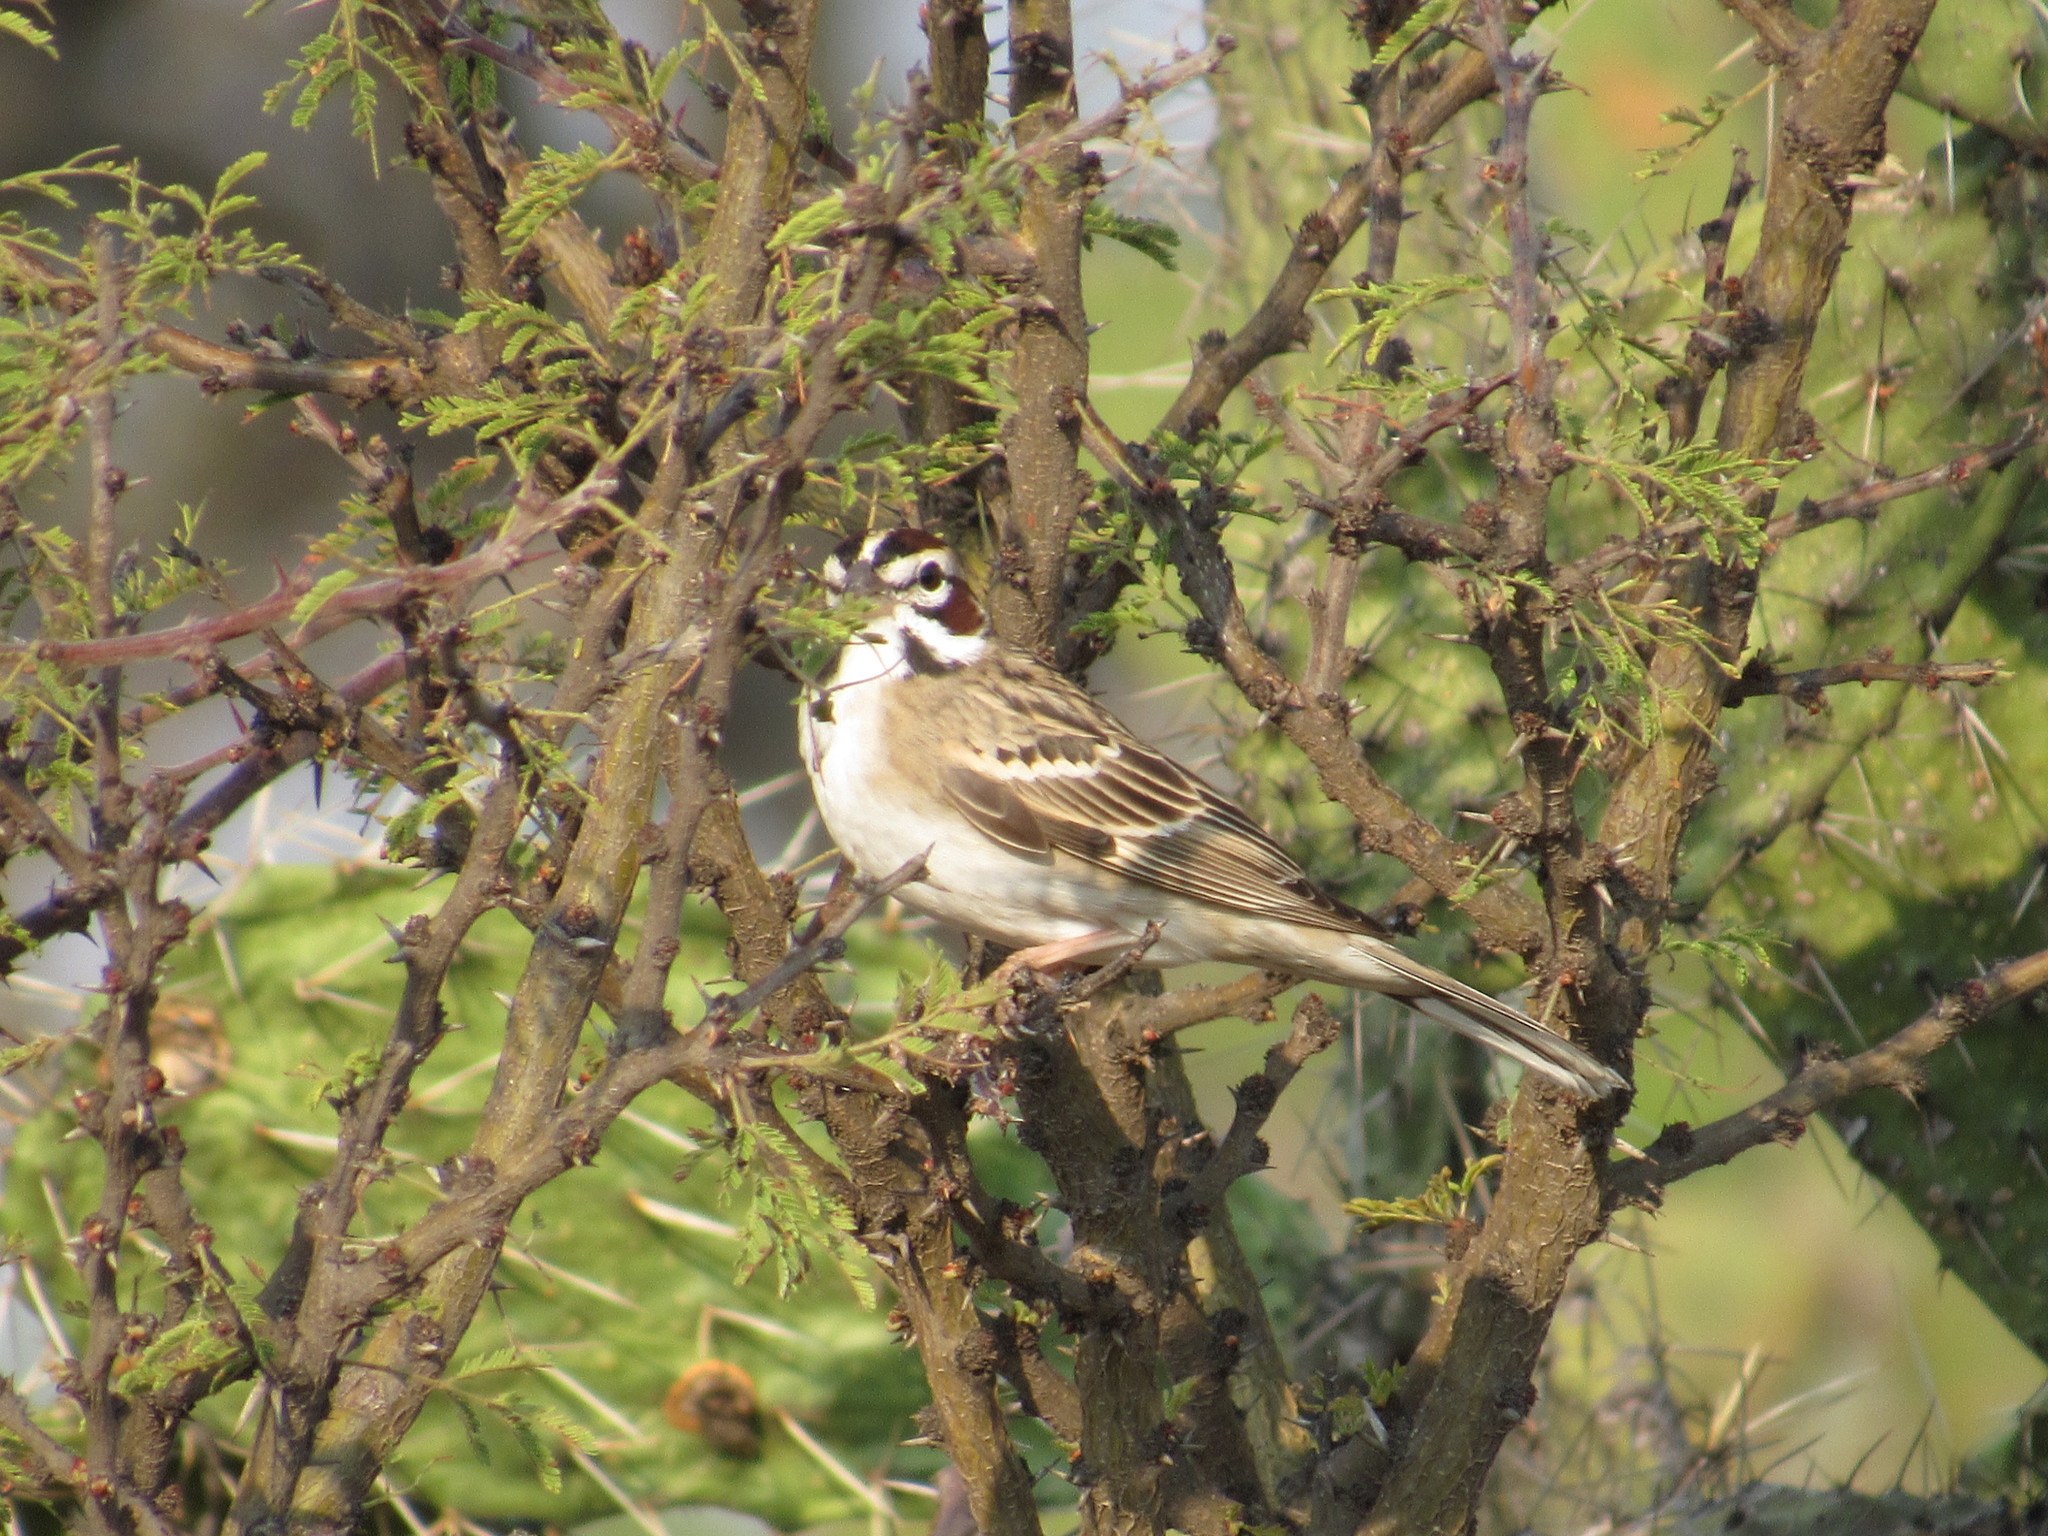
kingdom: Animalia
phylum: Chordata
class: Aves
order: Passeriformes
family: Passerellidae
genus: Chondestes
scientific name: Chondestes grammacus
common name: Lark sparrow
